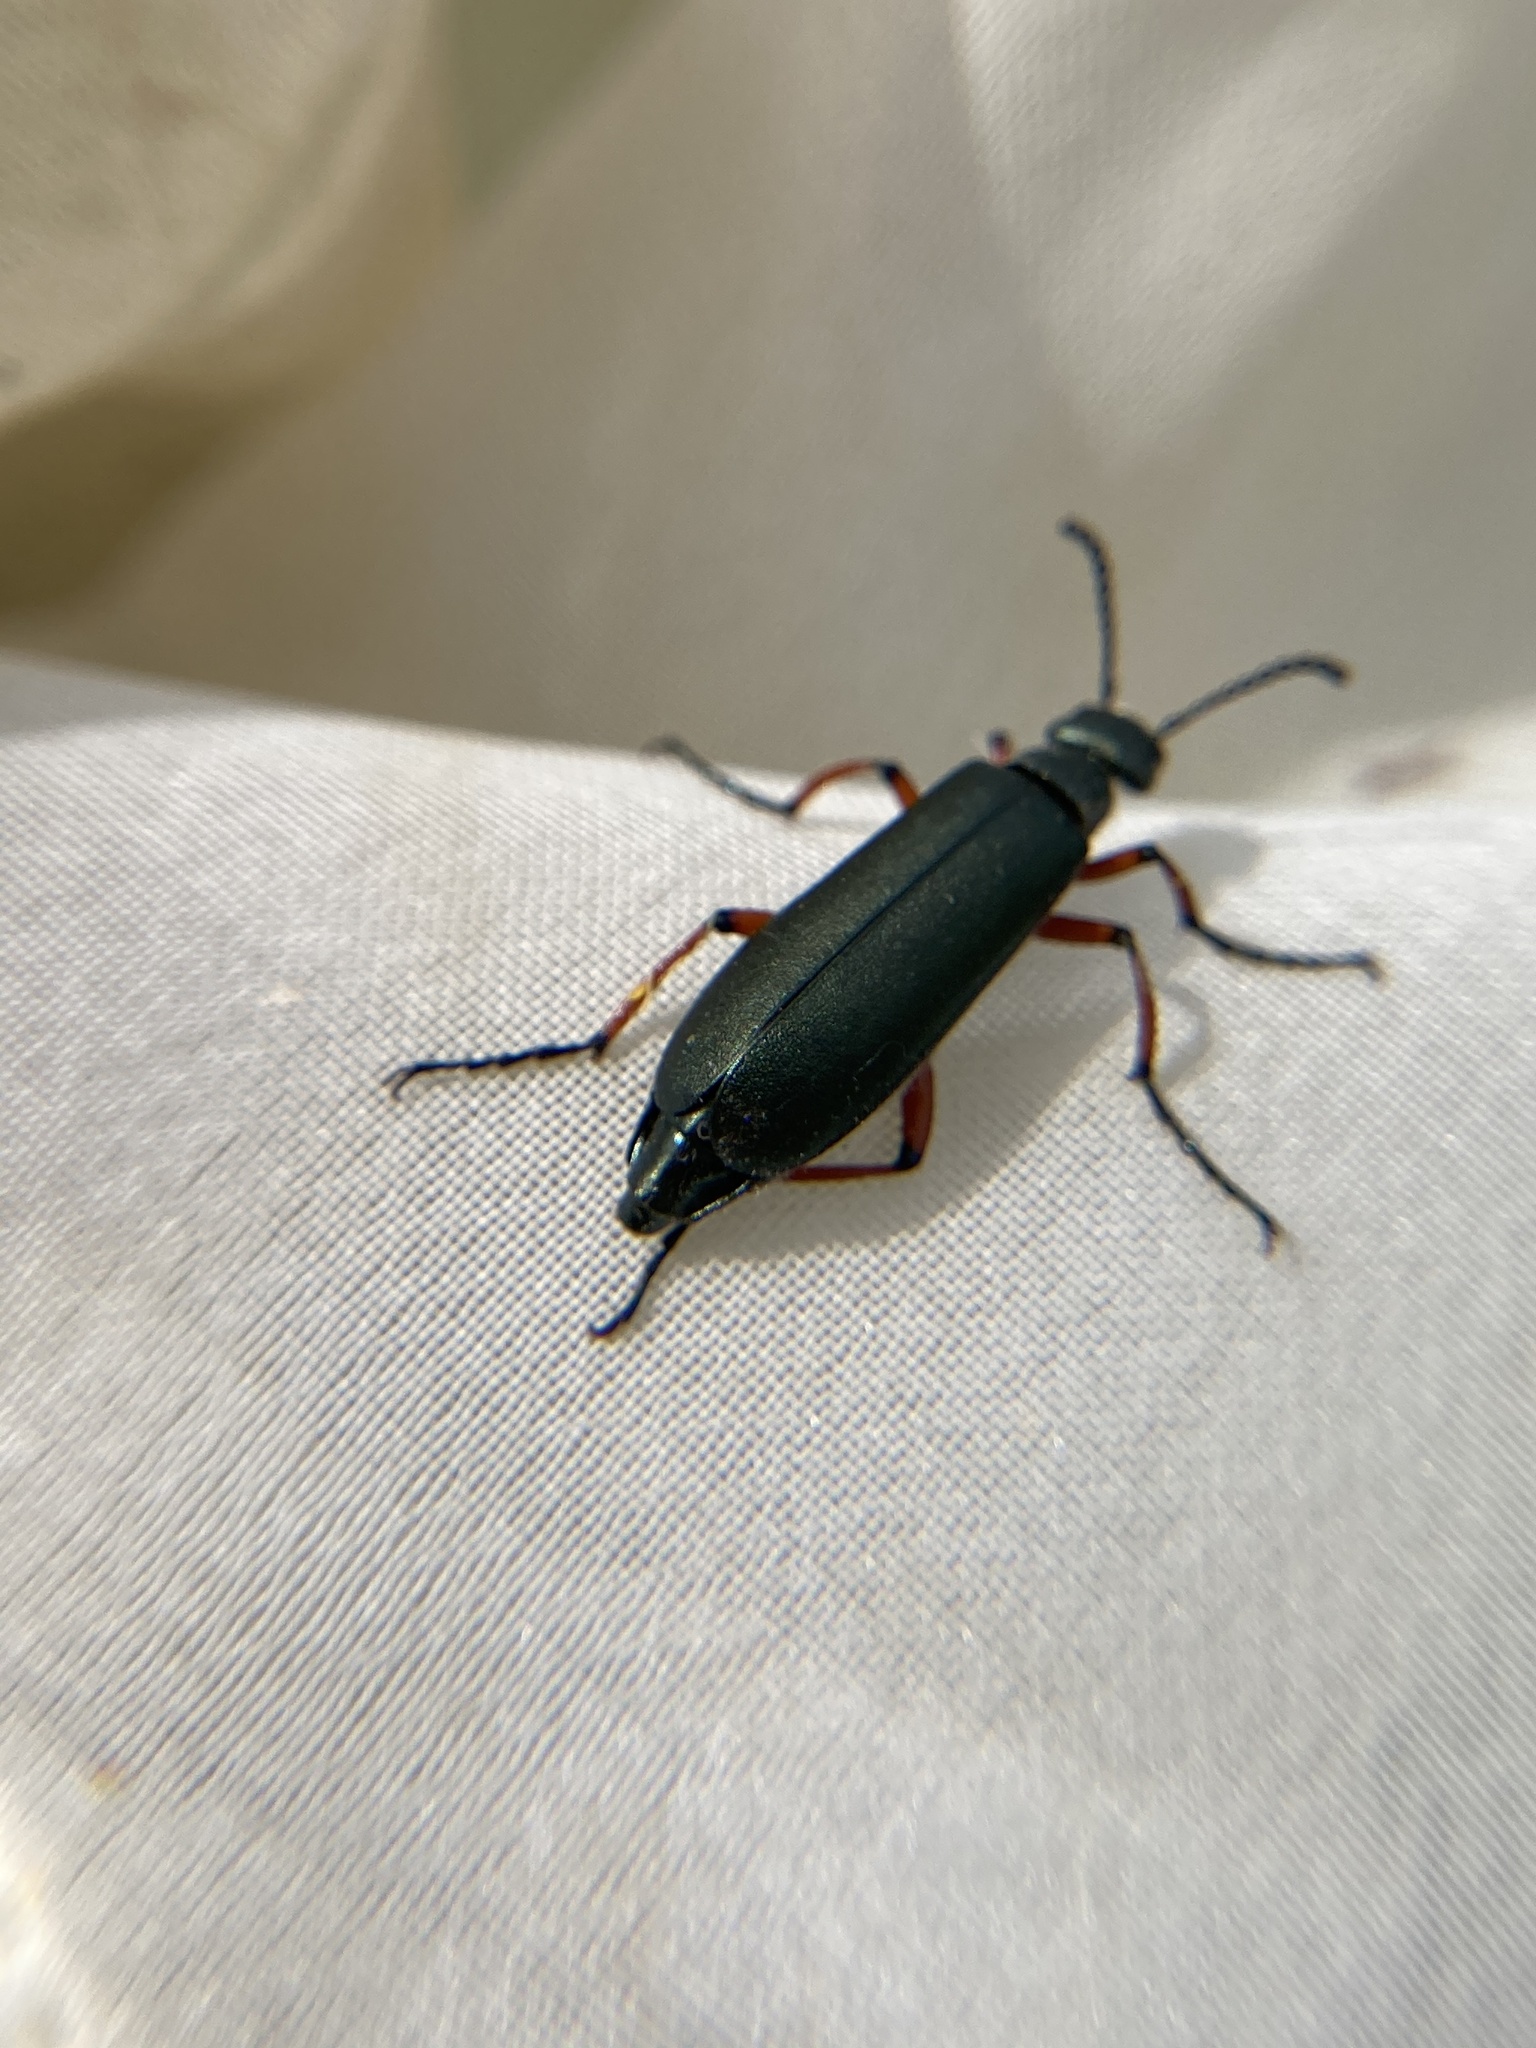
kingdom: Animalia
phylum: Arthropoda
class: Insecta
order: Coleoptera
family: Meloidae
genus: Lytta
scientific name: Lytta sayi
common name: Say's blister beetle
